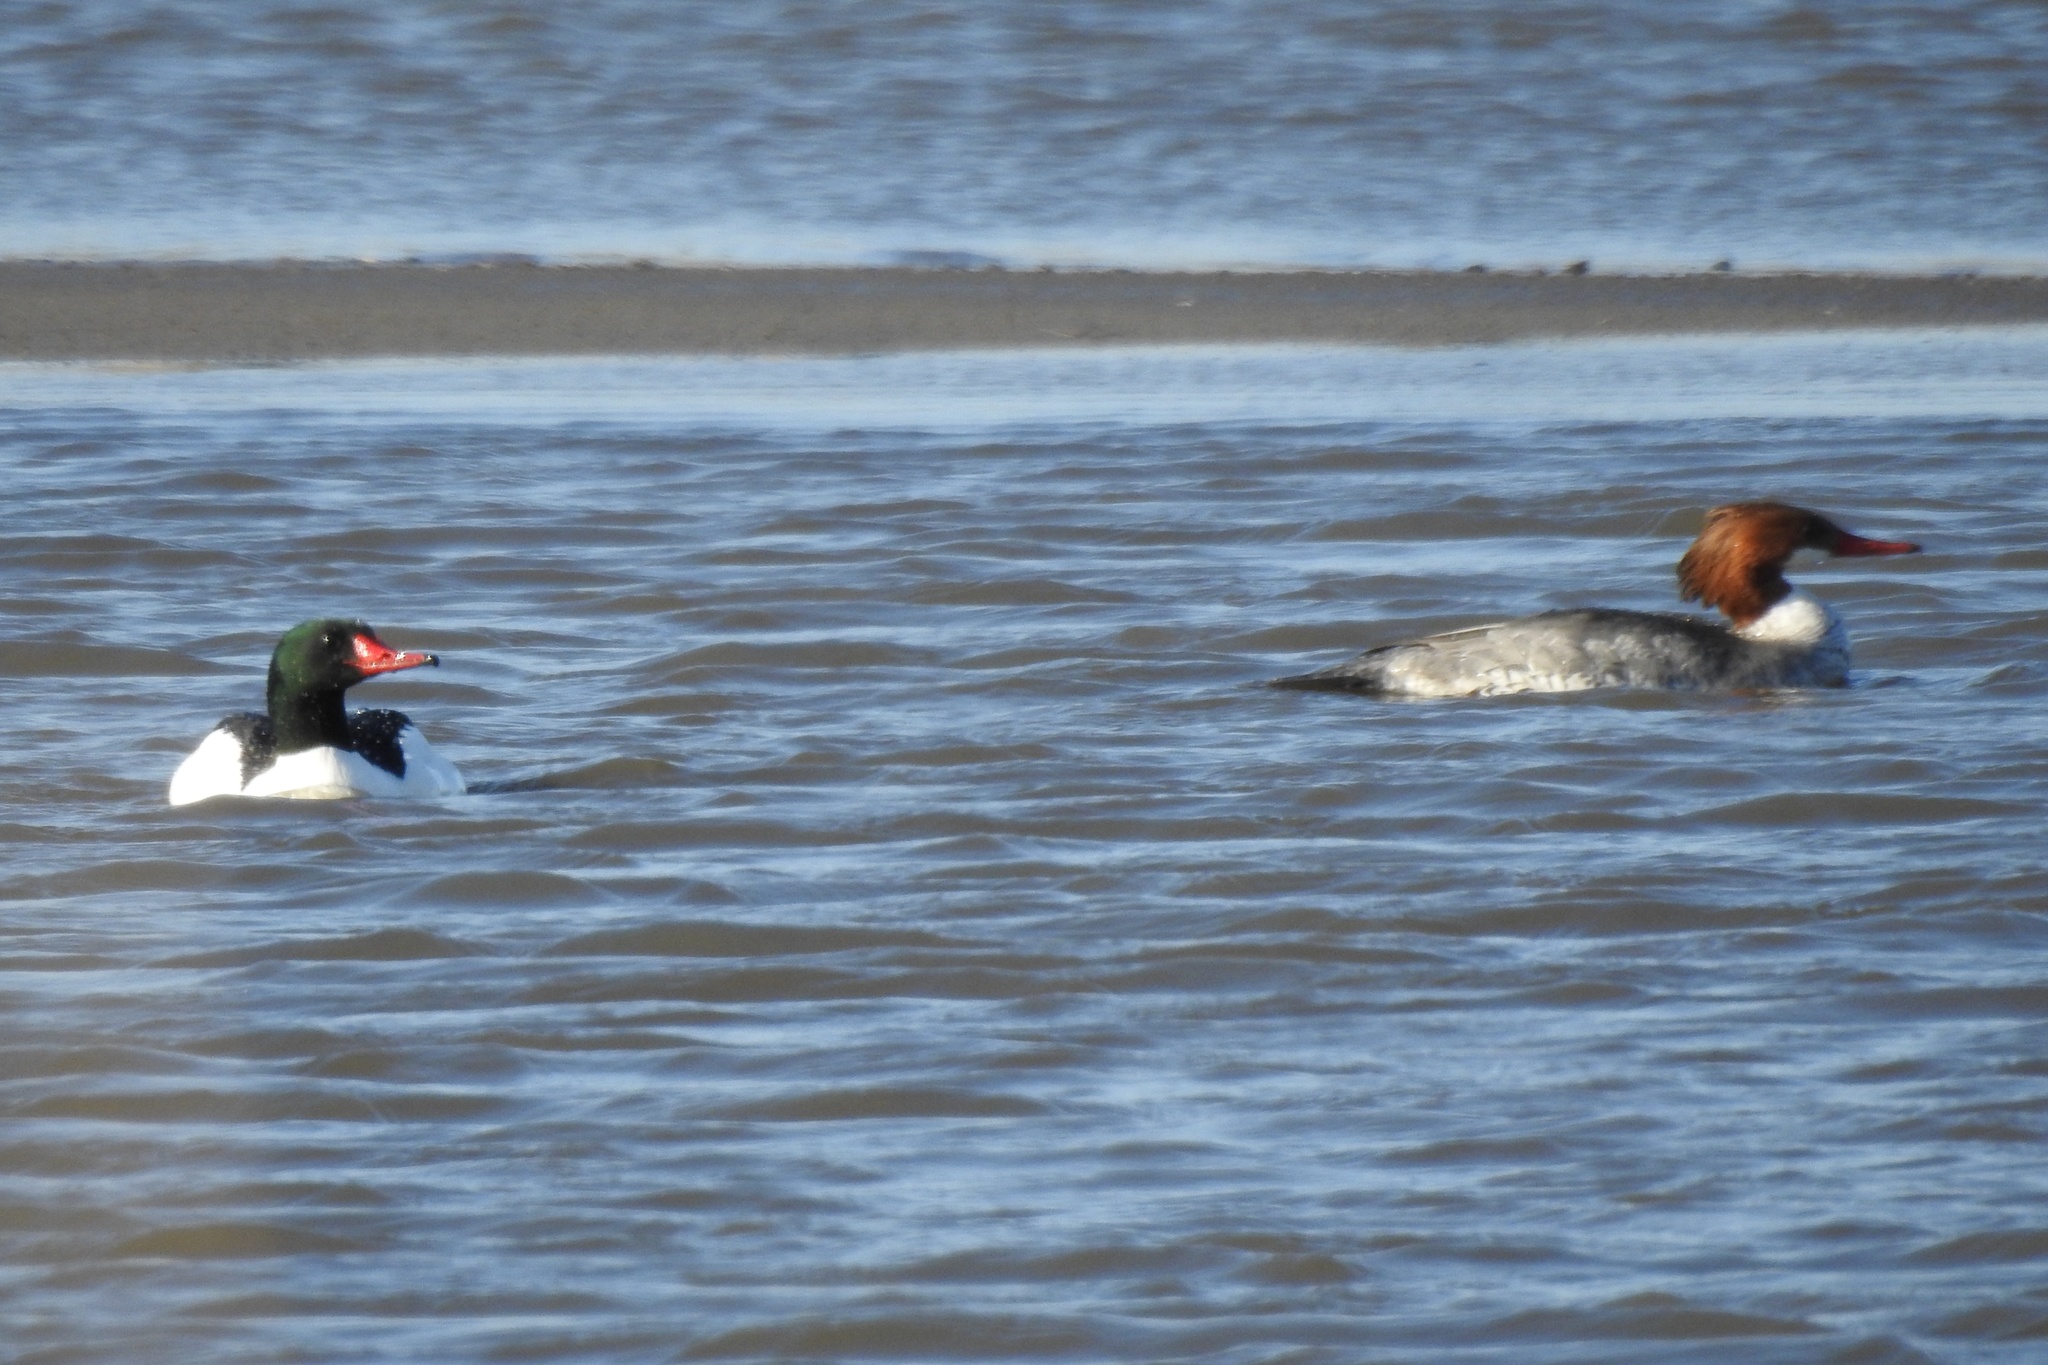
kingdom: Animalia
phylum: Chordata
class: Aves
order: Anseriformes
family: Anatidae
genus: Mergus
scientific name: Mergus merganser
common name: Common merganser
